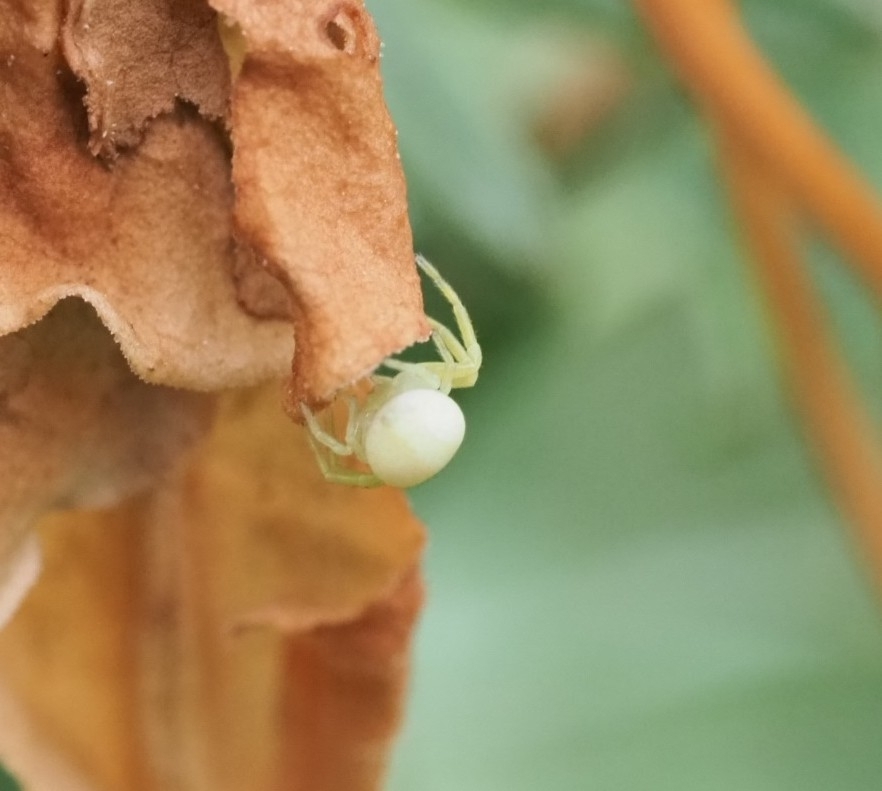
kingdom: Animalia
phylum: Arthropoda
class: Arachnida
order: Araneae
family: Thomisidae
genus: Misumena
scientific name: Misumena vatia
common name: Goldenrod crab spider
